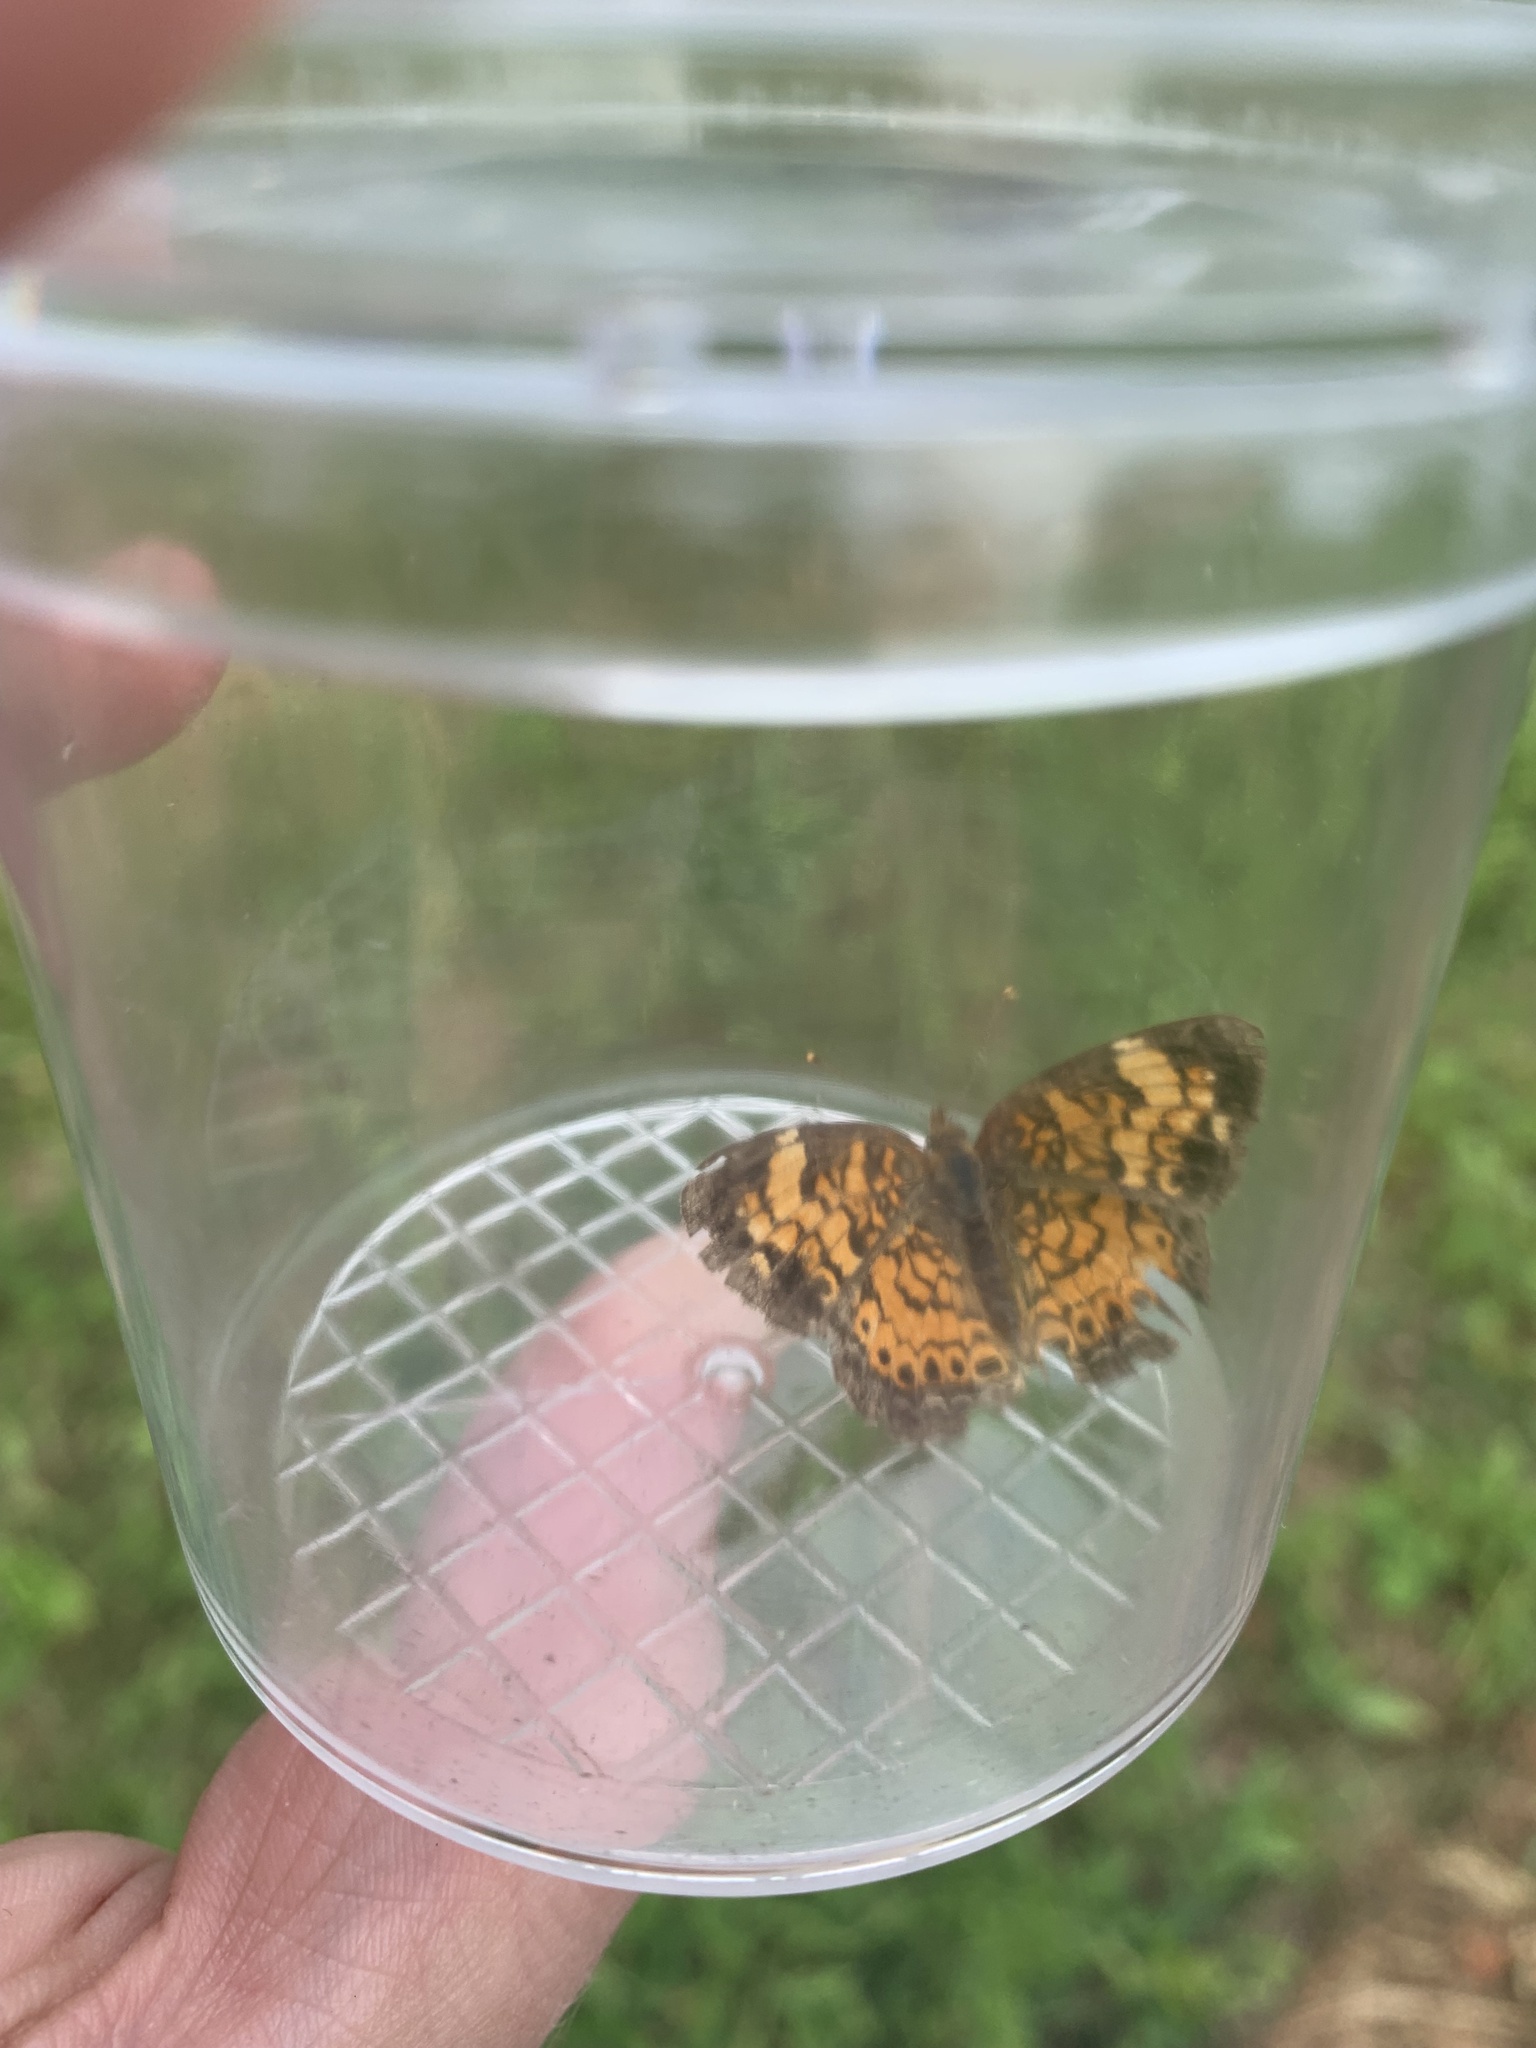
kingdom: Animalia
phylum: Arthropoda
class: Insecta
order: Lepidoptera
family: Nymphalidae
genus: Phyciodes
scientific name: Phyciodes tharos
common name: Pearl crescent
